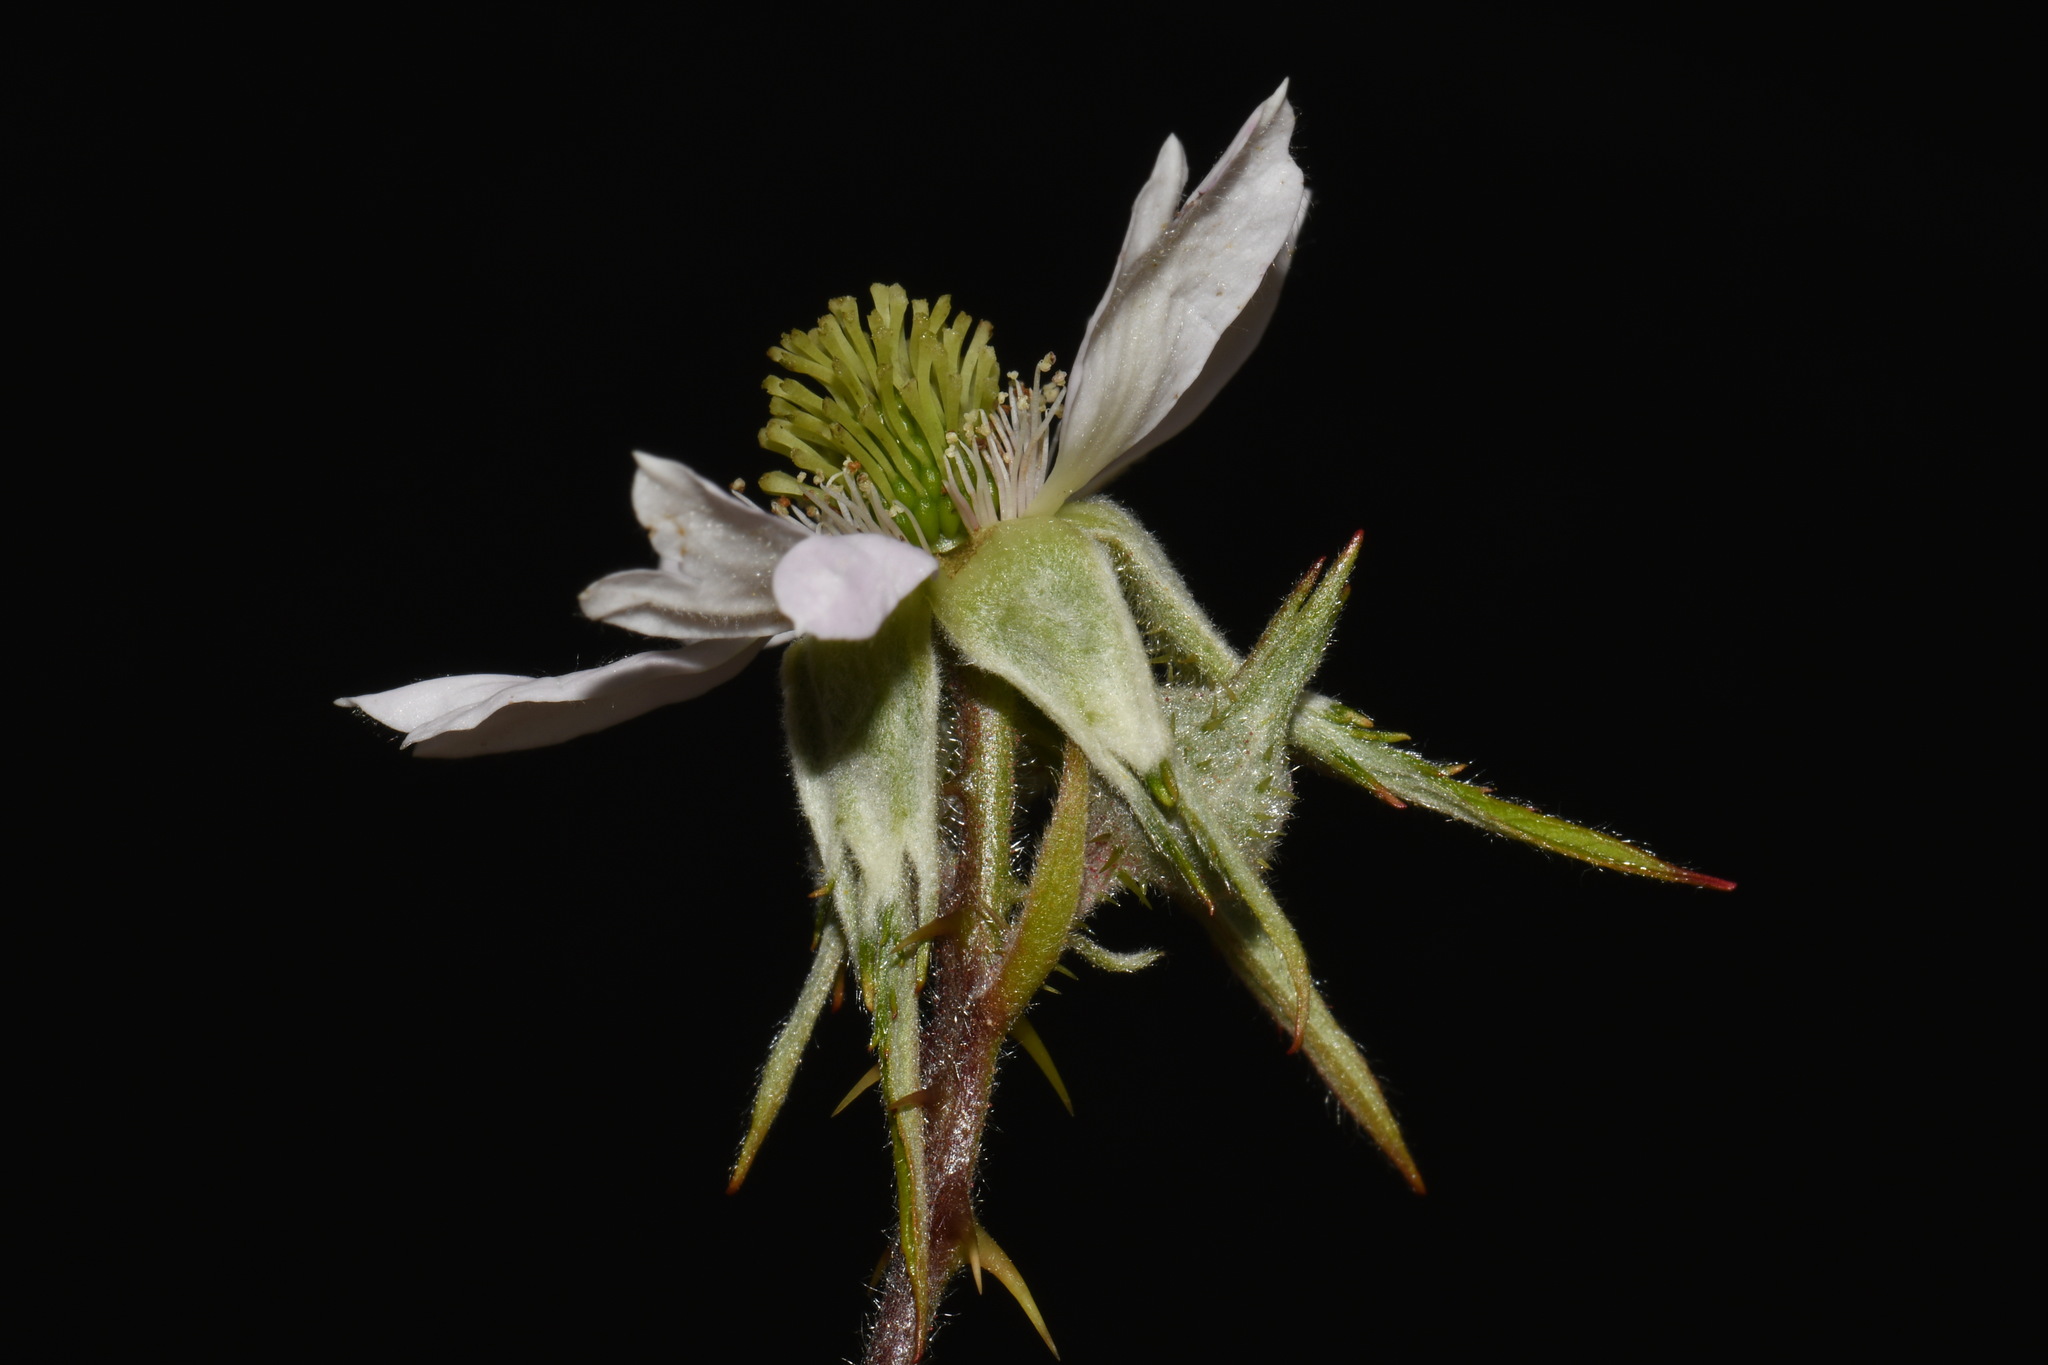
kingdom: Plantae
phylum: Tracheophyta
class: Magnoliopsida
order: Rosales
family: Rosaceae
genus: Rubus
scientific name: Rubus laciniatus
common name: Evergreen blackberry
